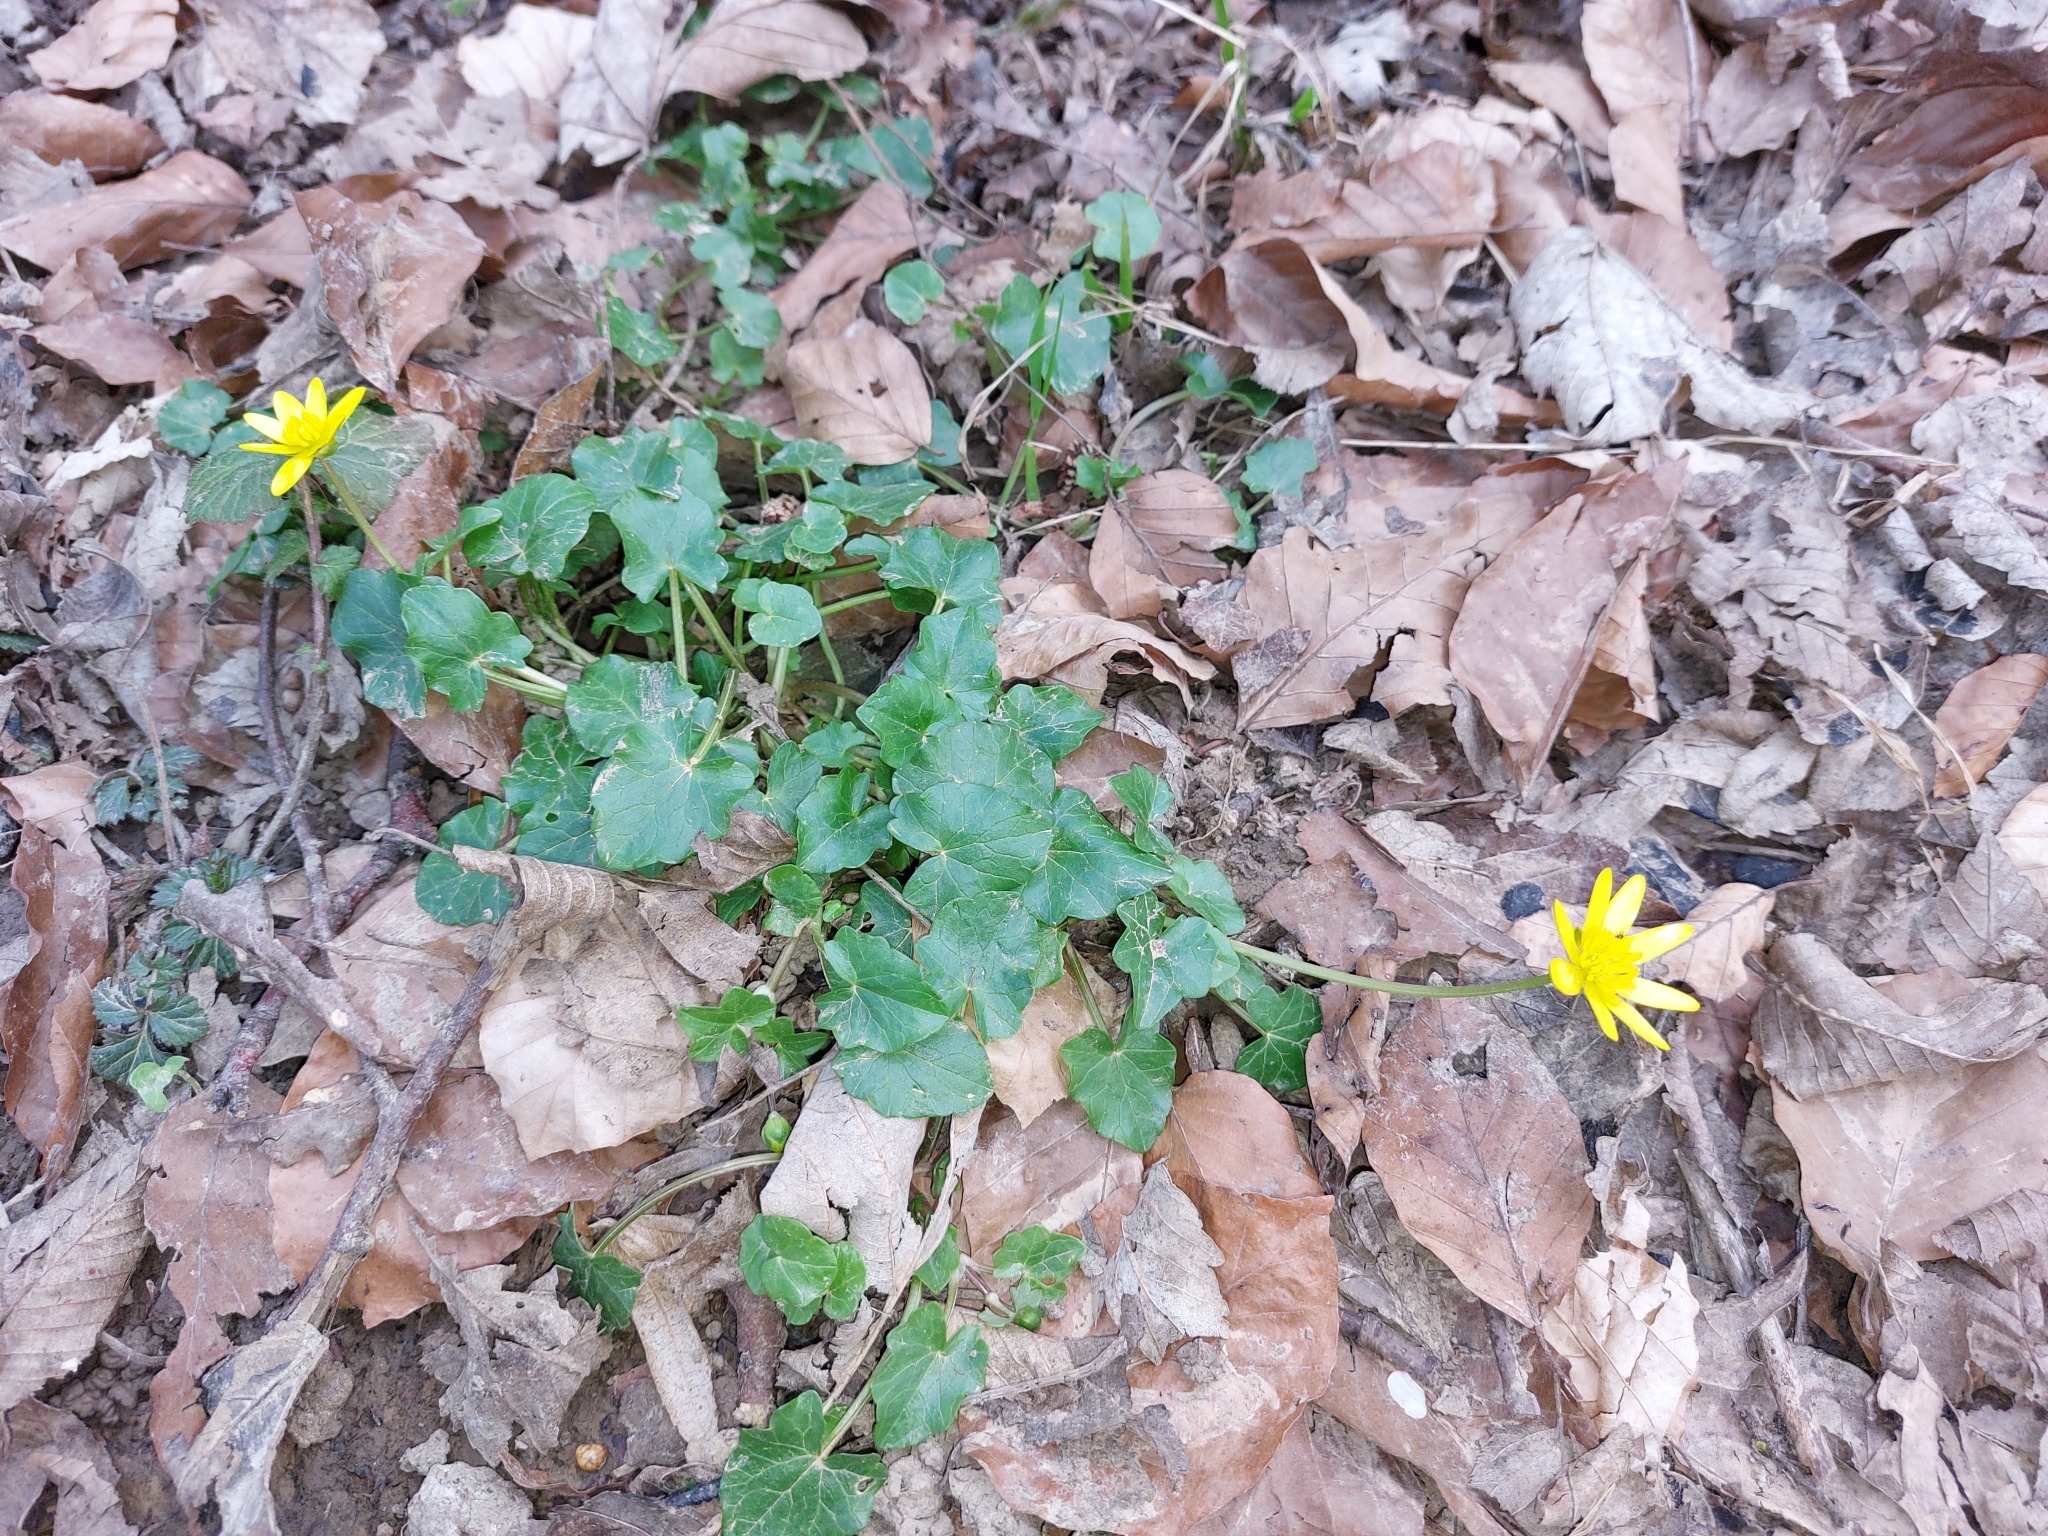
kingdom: Plantae
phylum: Tracheophyta
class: Magnoliopsida
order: Ranunculales
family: Ranunculaceae
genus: Ficaria
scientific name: Ficaria verna
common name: Lesser celandine
